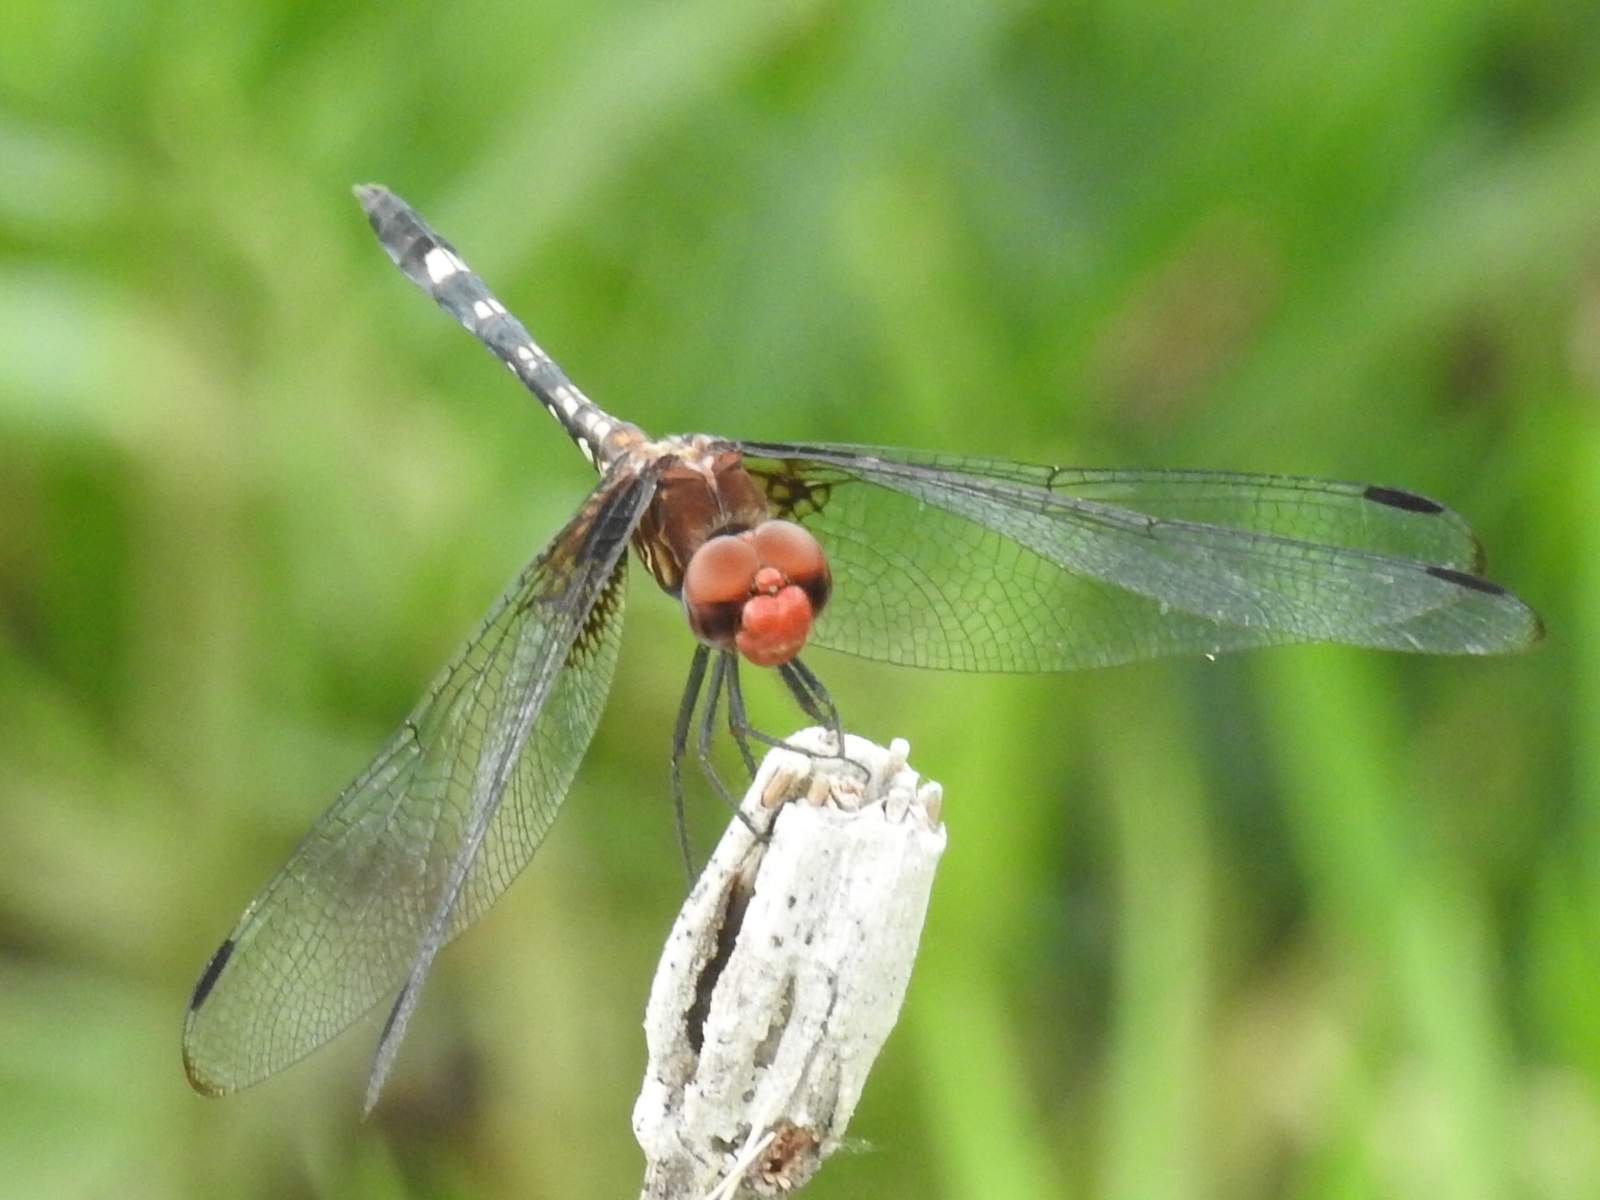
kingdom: Animalia
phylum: Arthropoda
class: Insecta
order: Odonata
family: Libellulidae
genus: Dythemis
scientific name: Dythemis fugax
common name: Checkered setwing
